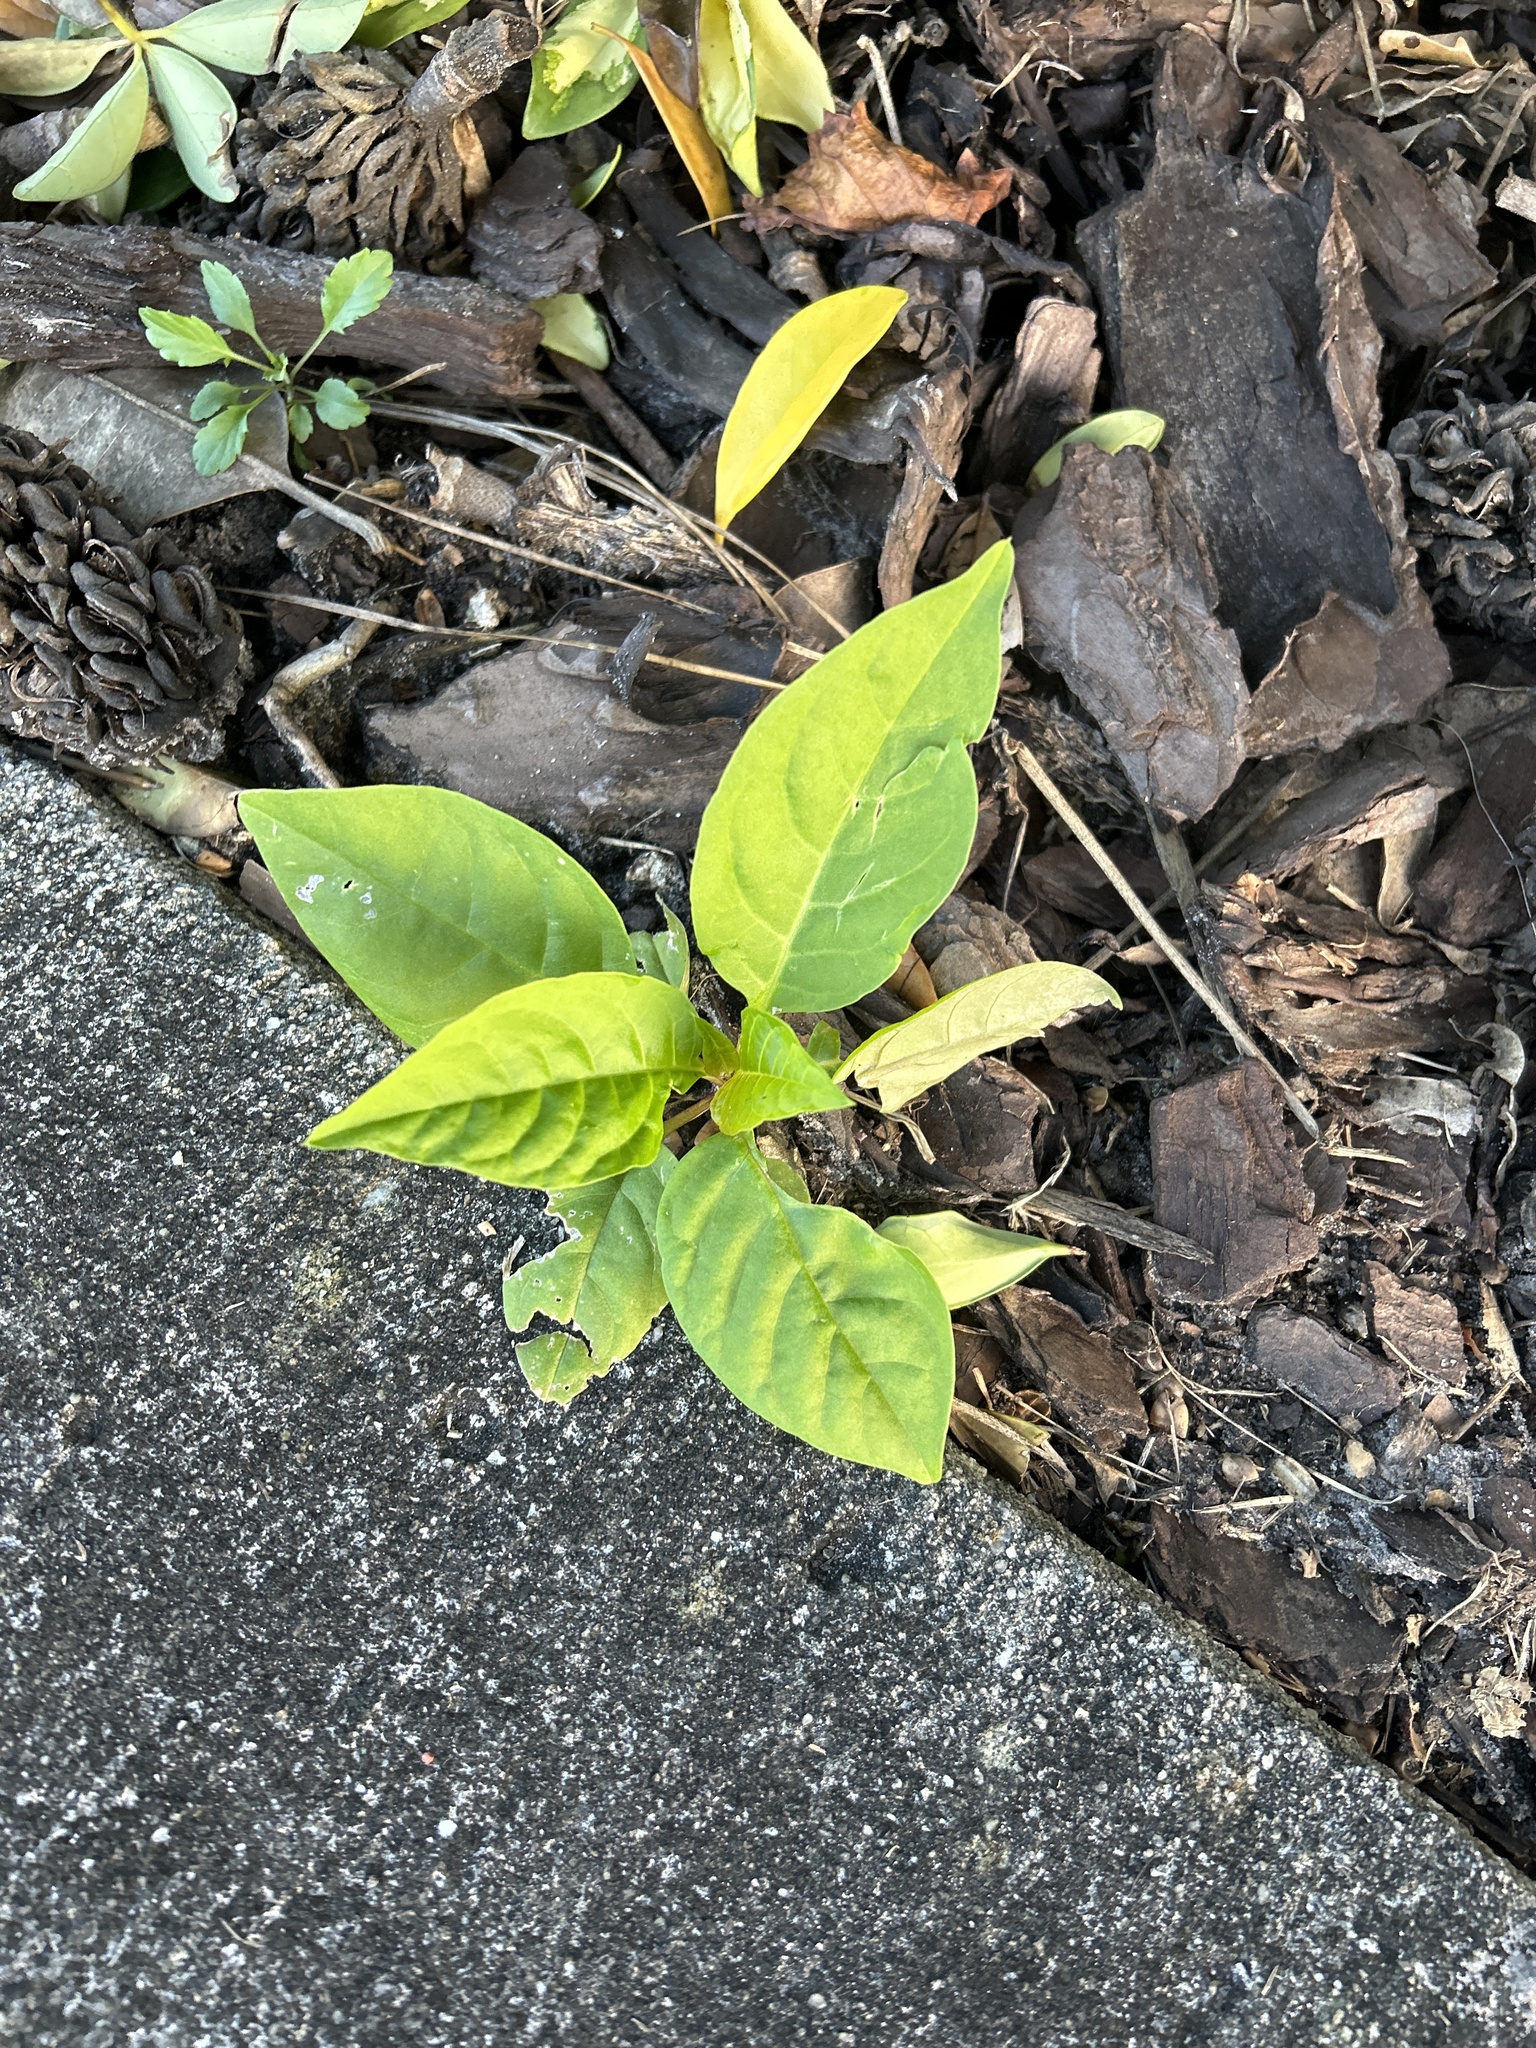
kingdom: Plantae
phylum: Tracheophyta
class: Magnoliopsida
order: Caryophyllales
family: Phytolaccaceae
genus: Phytolacca
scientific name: Phytolacca americana
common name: American pokeweed
